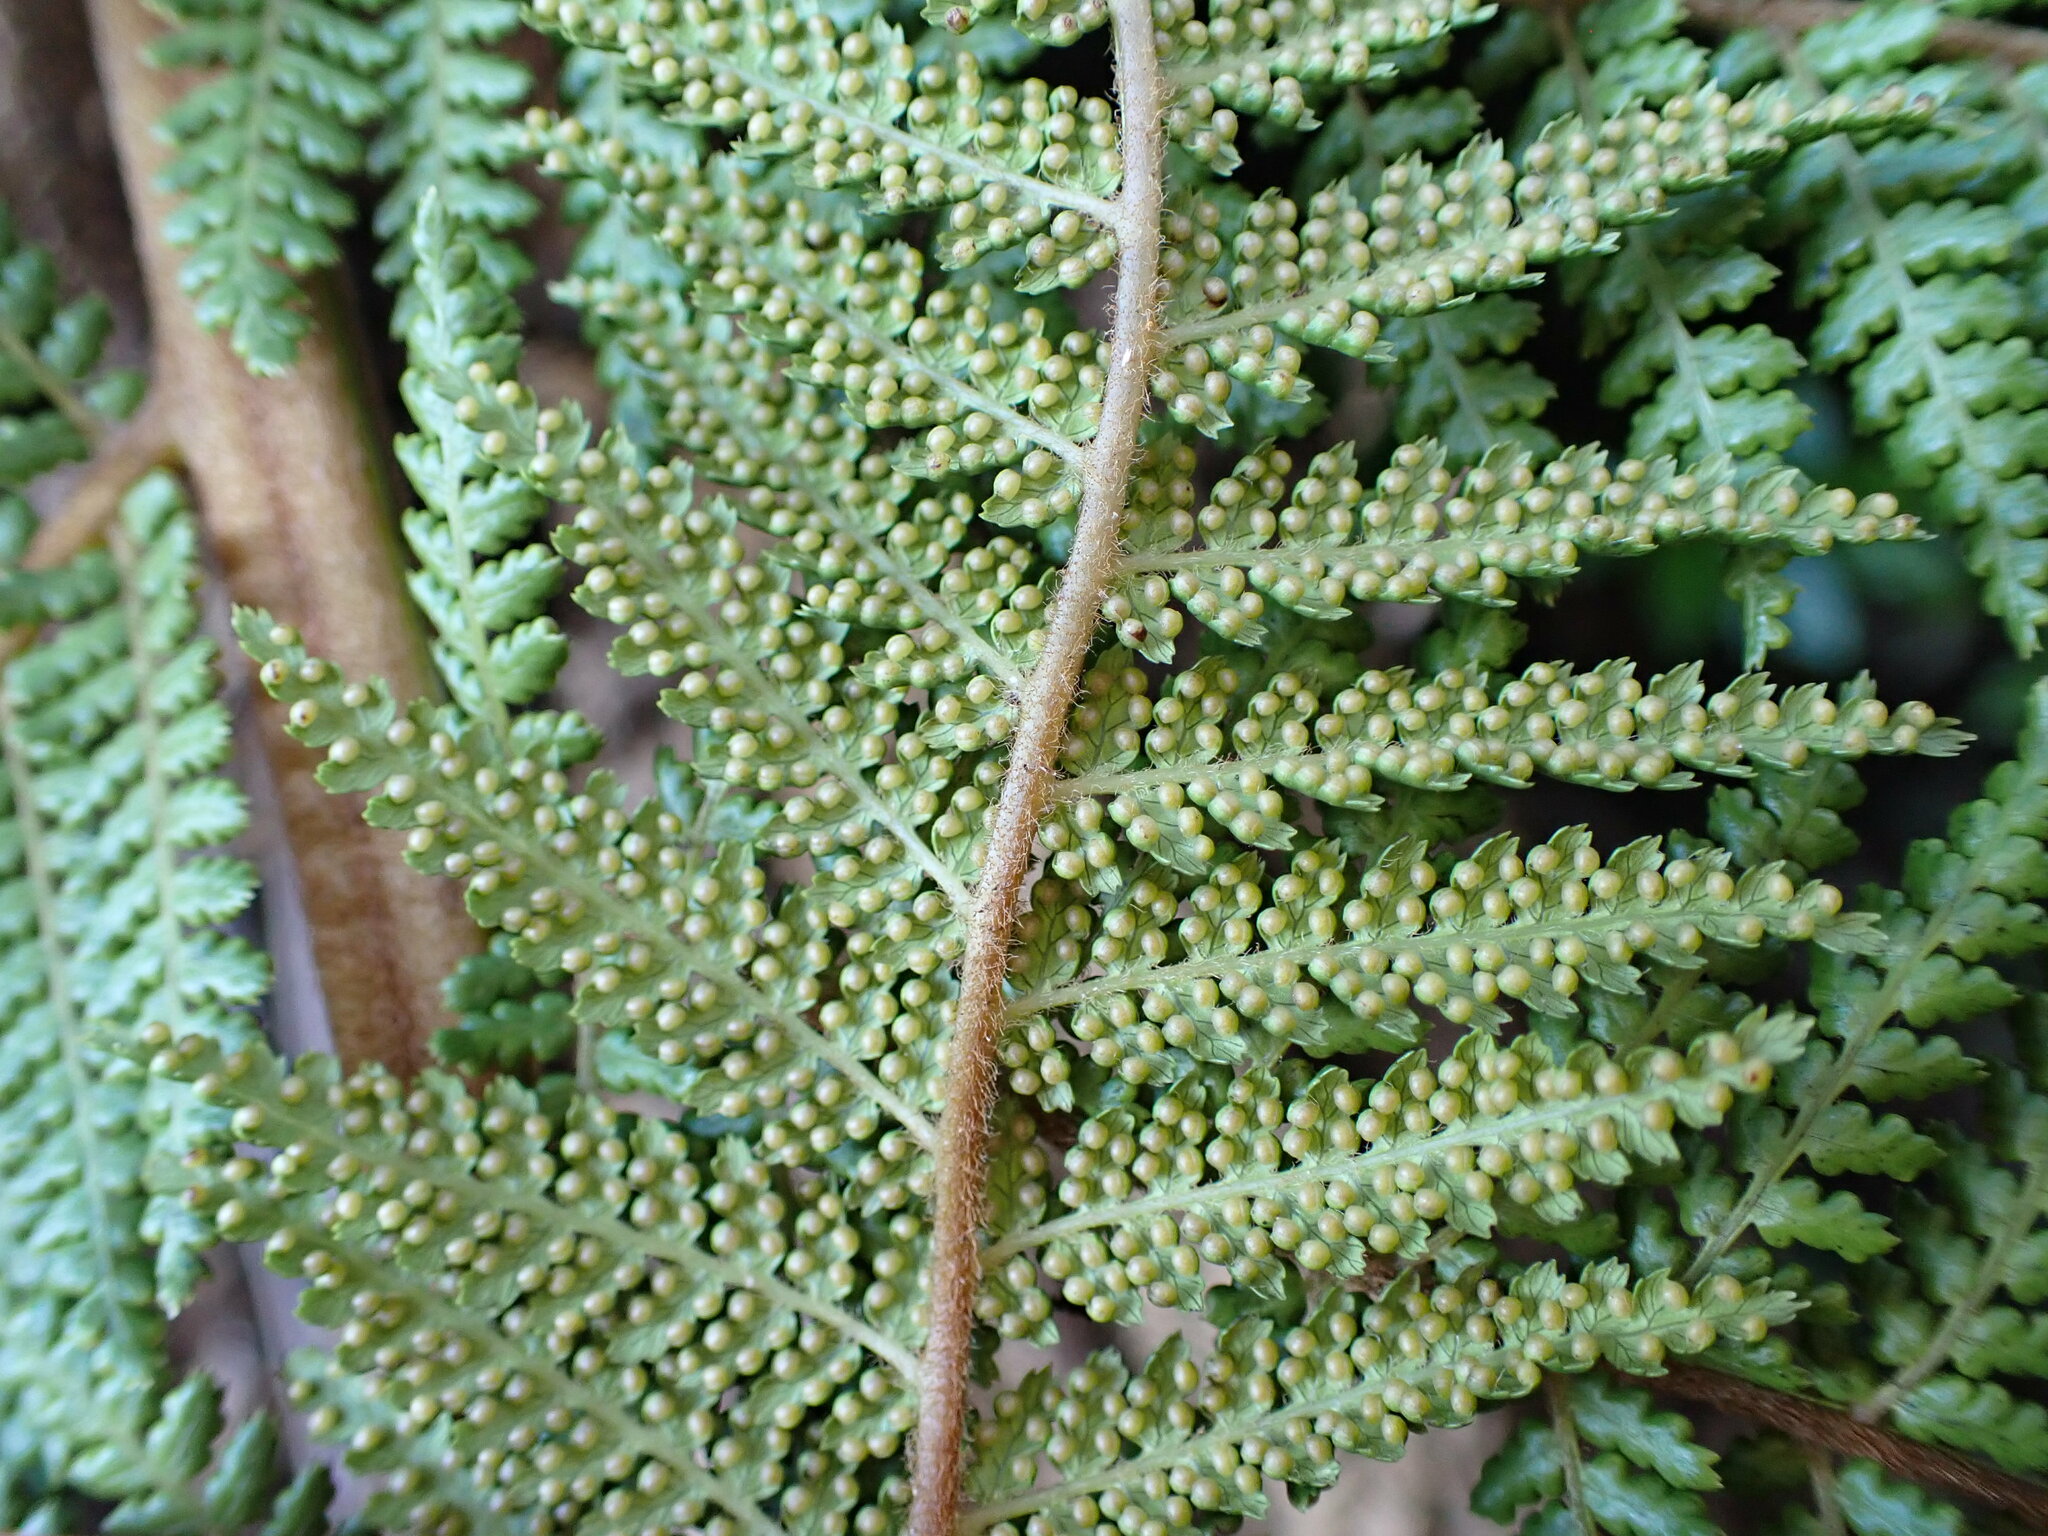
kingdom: Plantae
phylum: Tracheophyta
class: Polypodiopsida
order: Cyatheales
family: Dicksoniaceae
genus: Dicksonia
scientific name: Dicksonia fibrosa
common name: Golden tree fern
